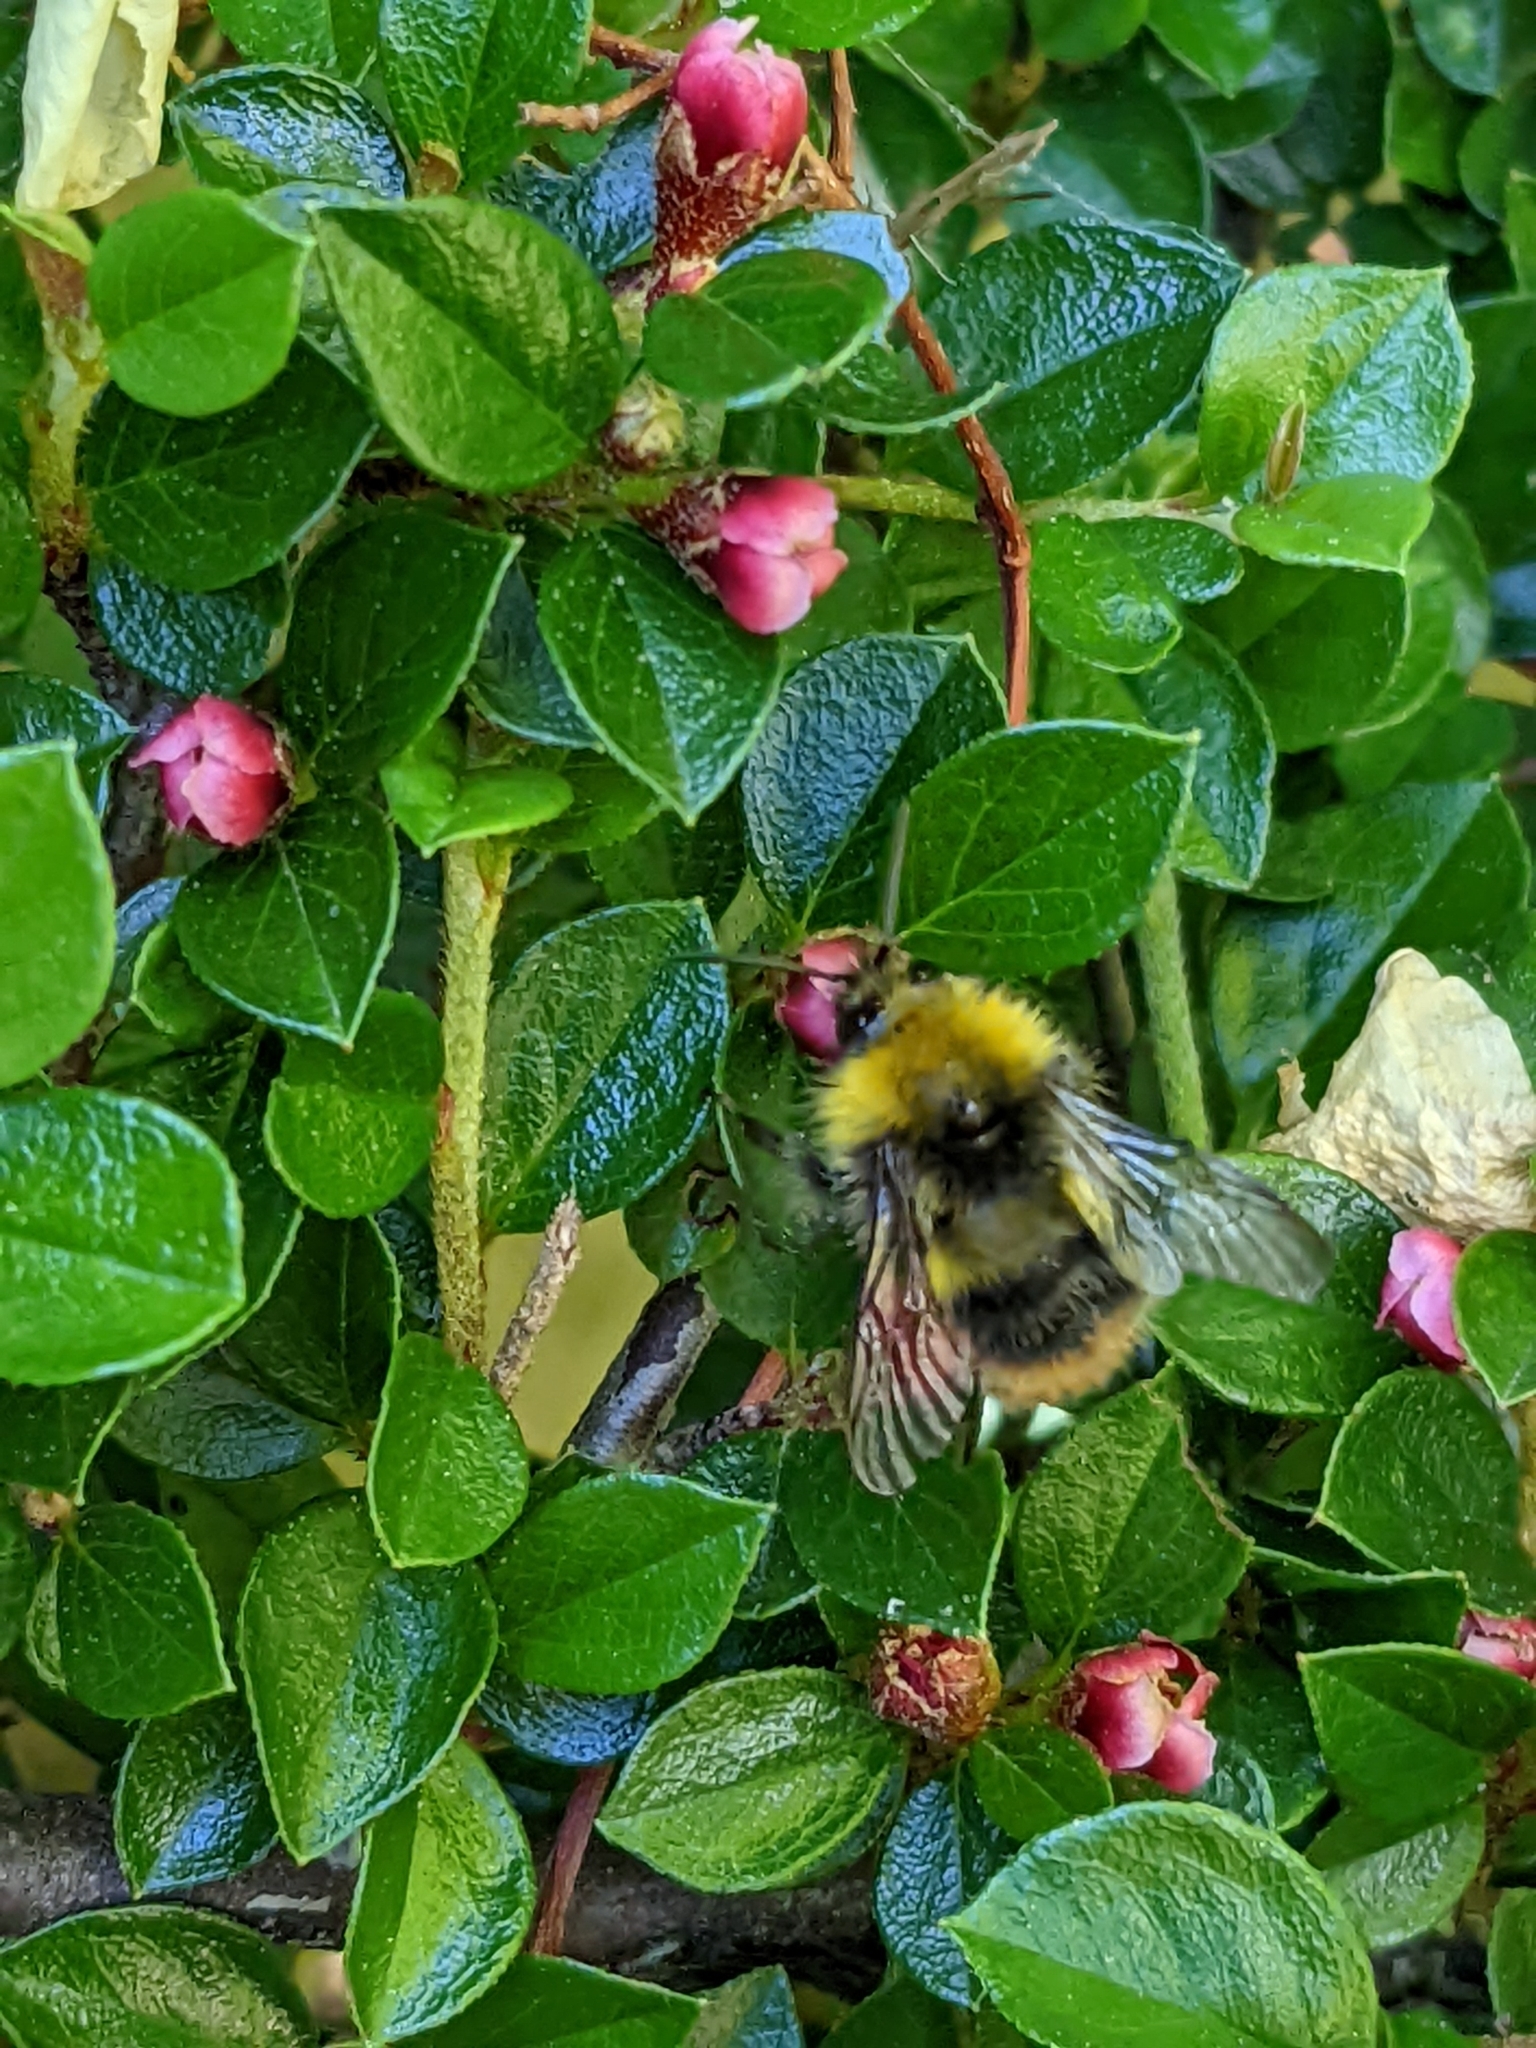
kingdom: Animalia
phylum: Arthropoda
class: Insecta
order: Hymenoptera
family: Apidae
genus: Bombus
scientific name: Bombus pratorum
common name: Early humble-bee
